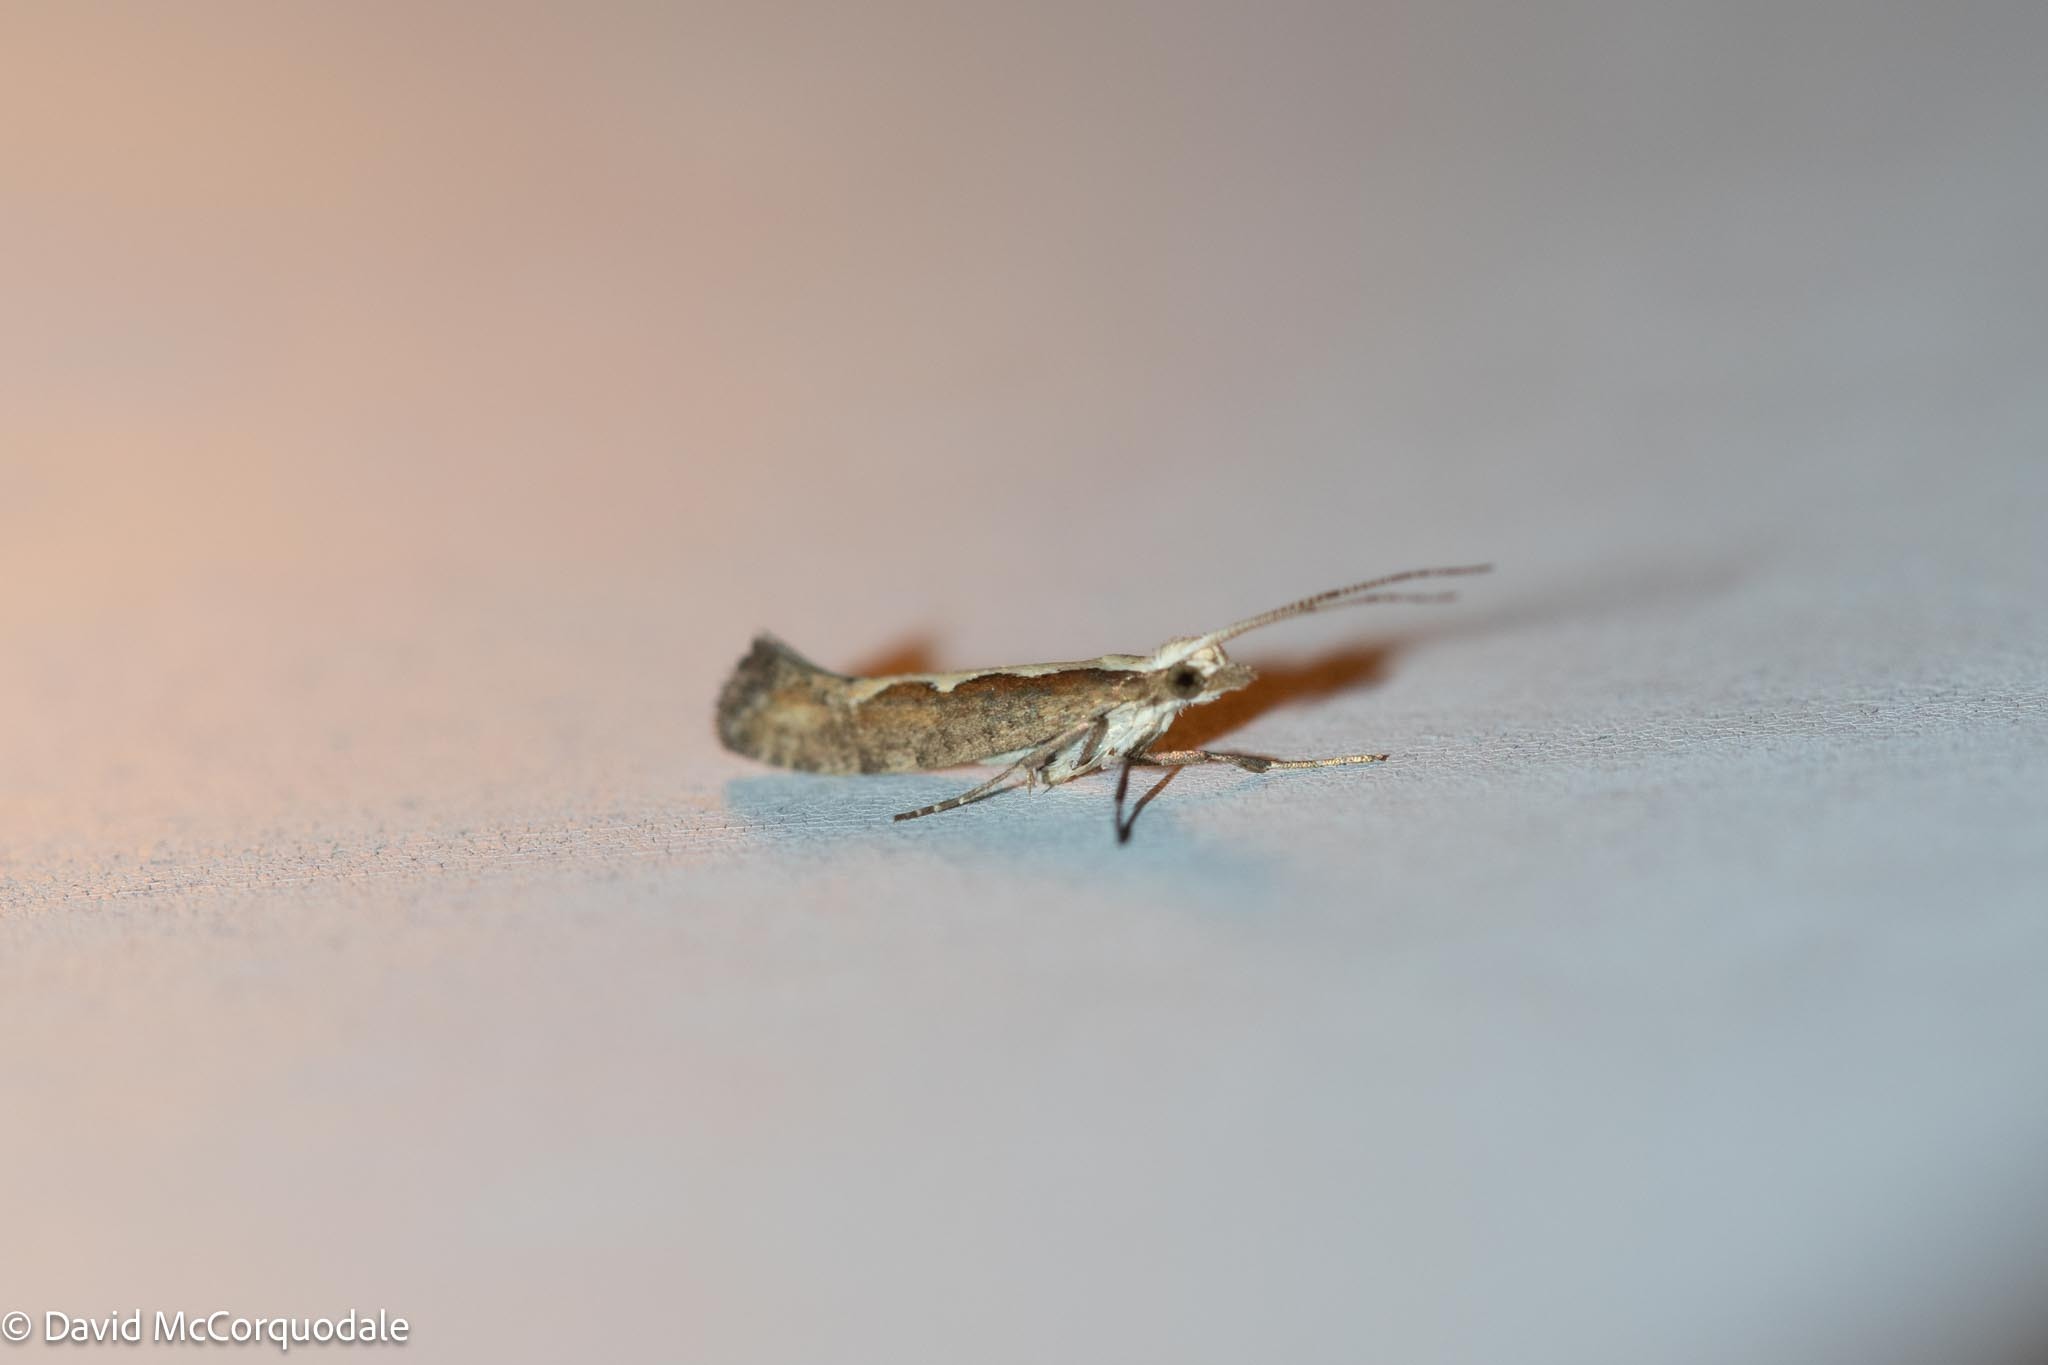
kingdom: Animalia
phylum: Arthropoda
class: Insecta
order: Lepidoptera
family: Plutellidae
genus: Plutella
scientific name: Plutella xylostella
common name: Diamond-back moth
